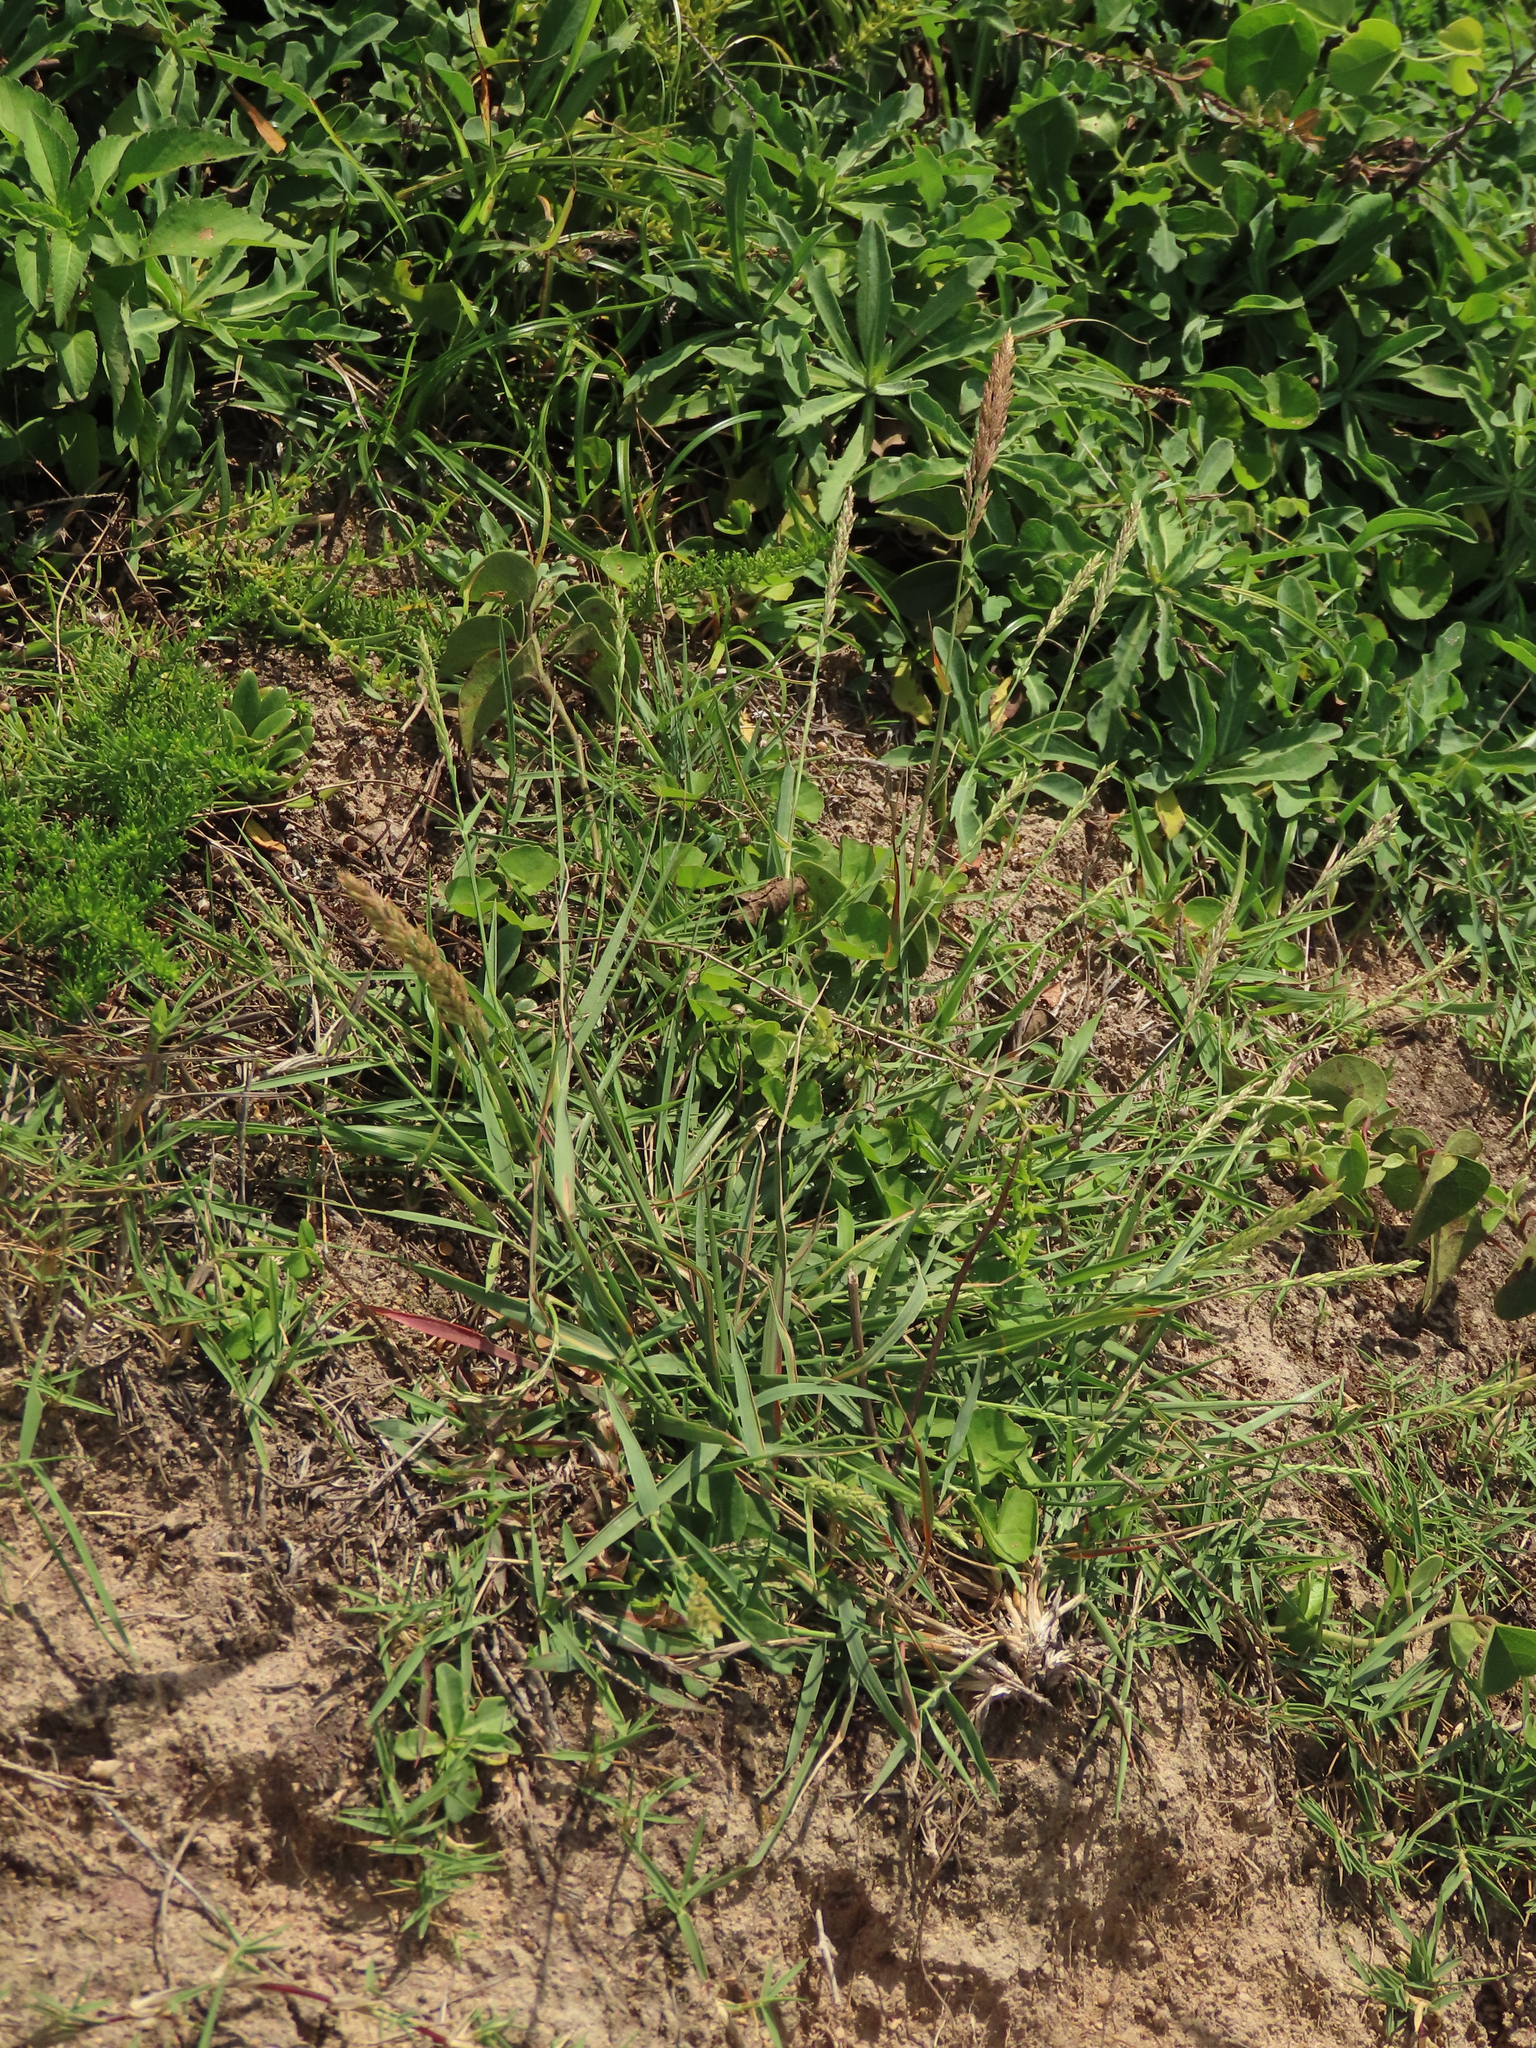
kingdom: Plantae
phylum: Tracheophyta
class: Liliopsida
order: Poales
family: Poaceae
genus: Eragrostis
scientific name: Eragrostis cylindrica
